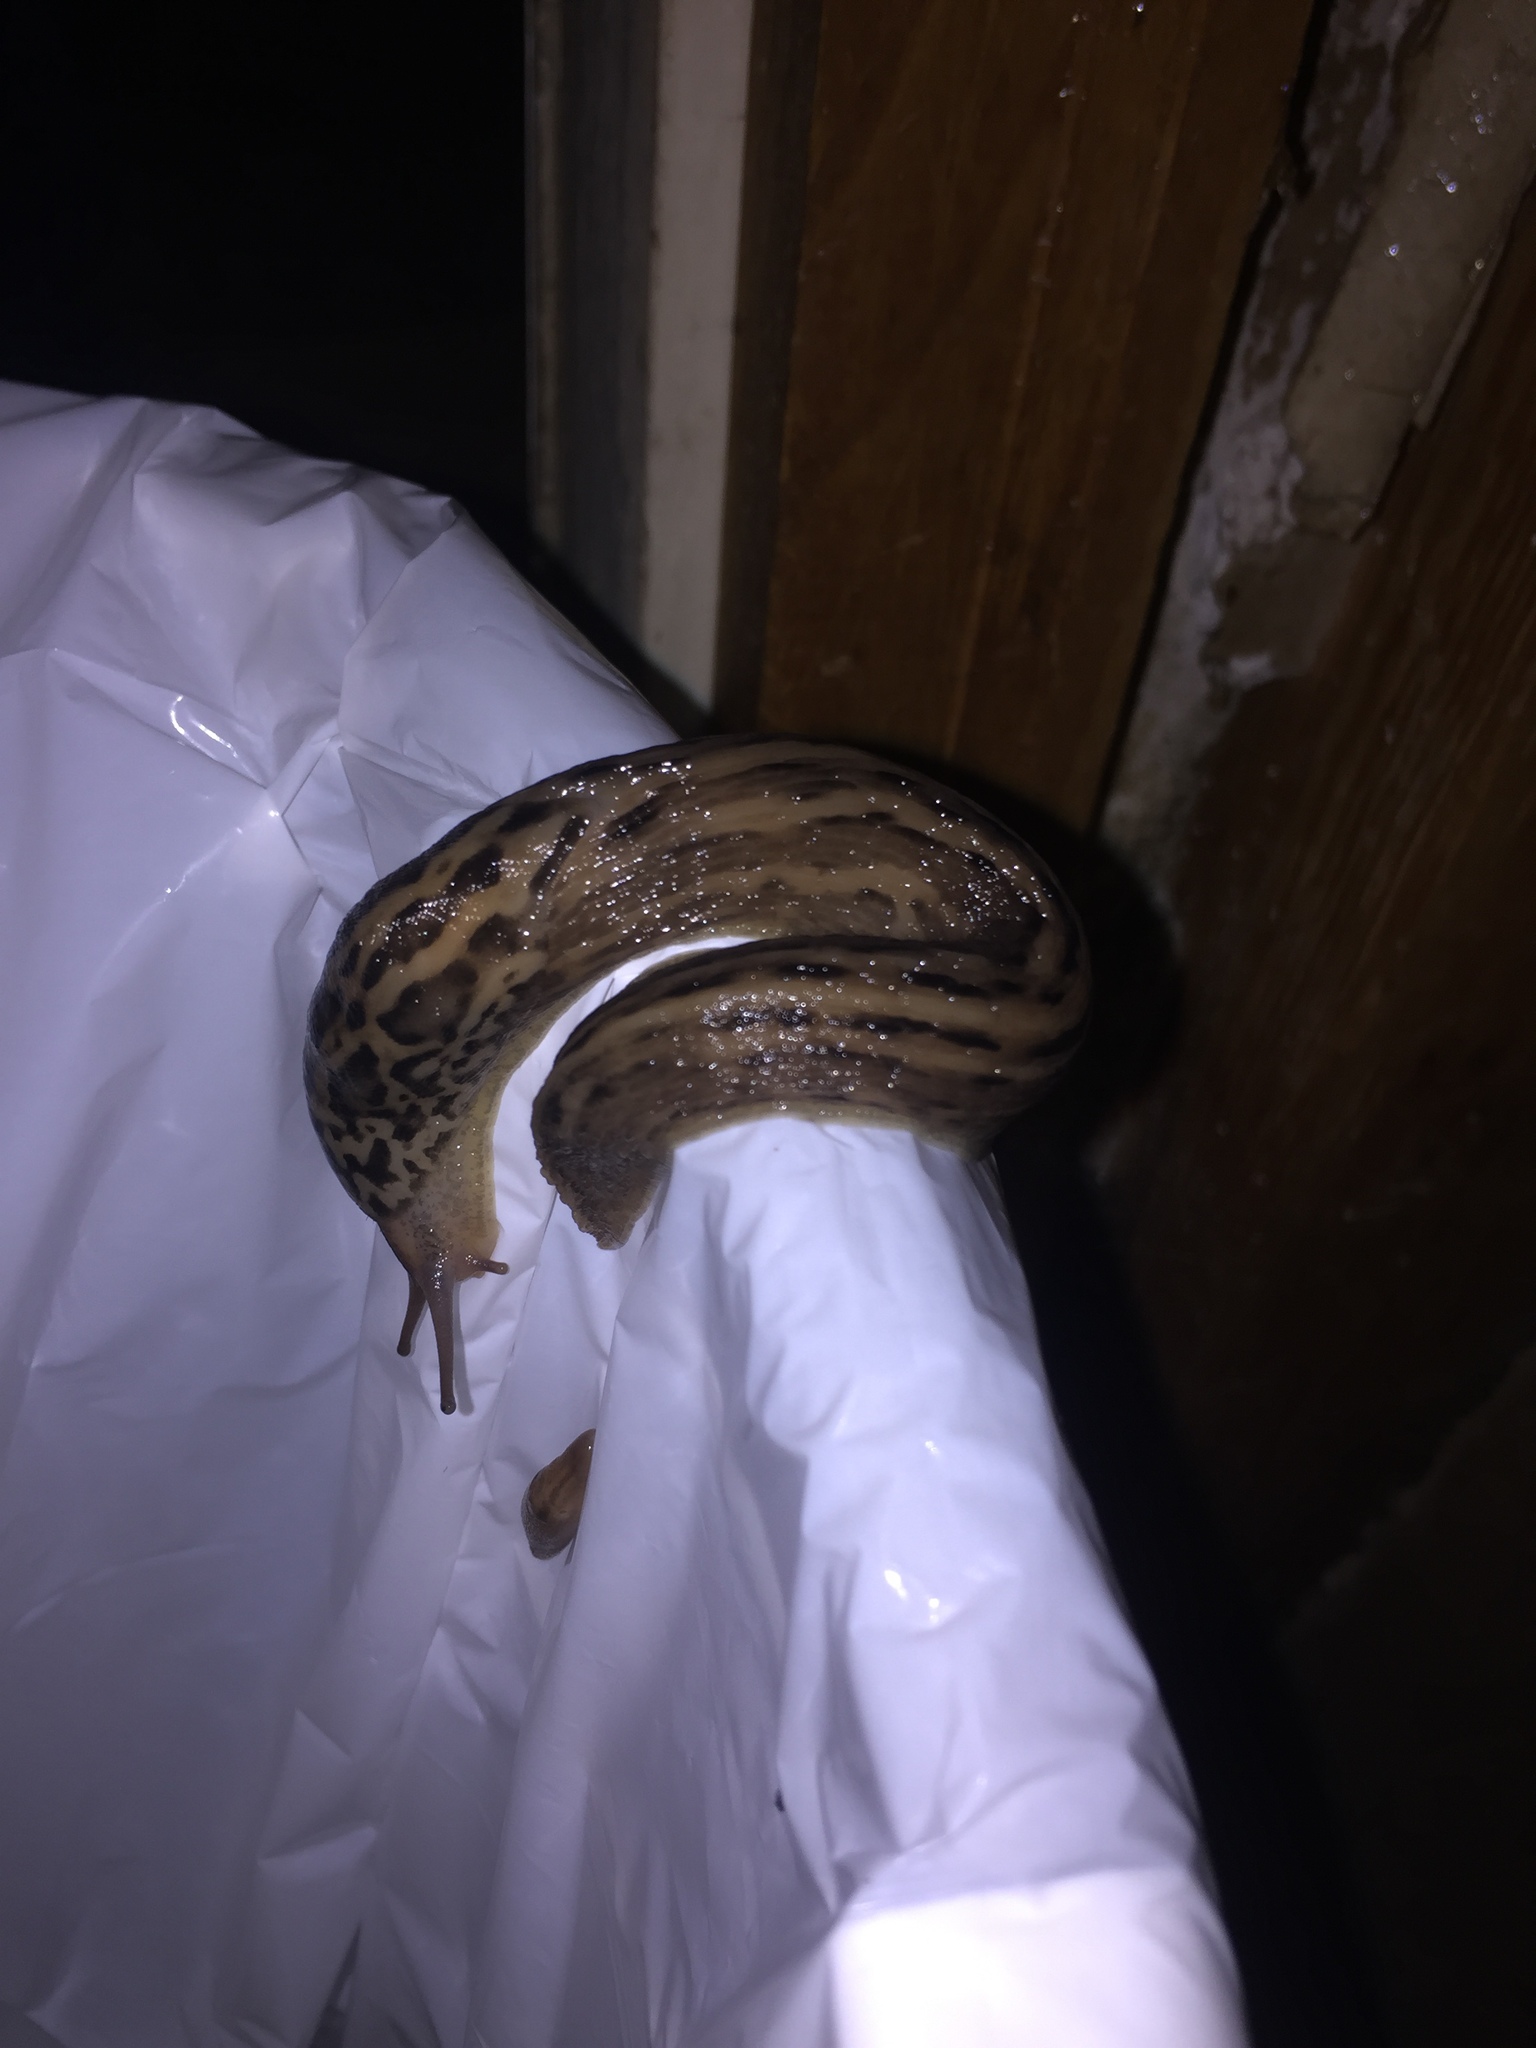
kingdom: Animalia
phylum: Mollusca
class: Gastropoda
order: Stylommatophora
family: Limacidae
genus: Limax
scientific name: Limax maximus
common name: Great grey slug
